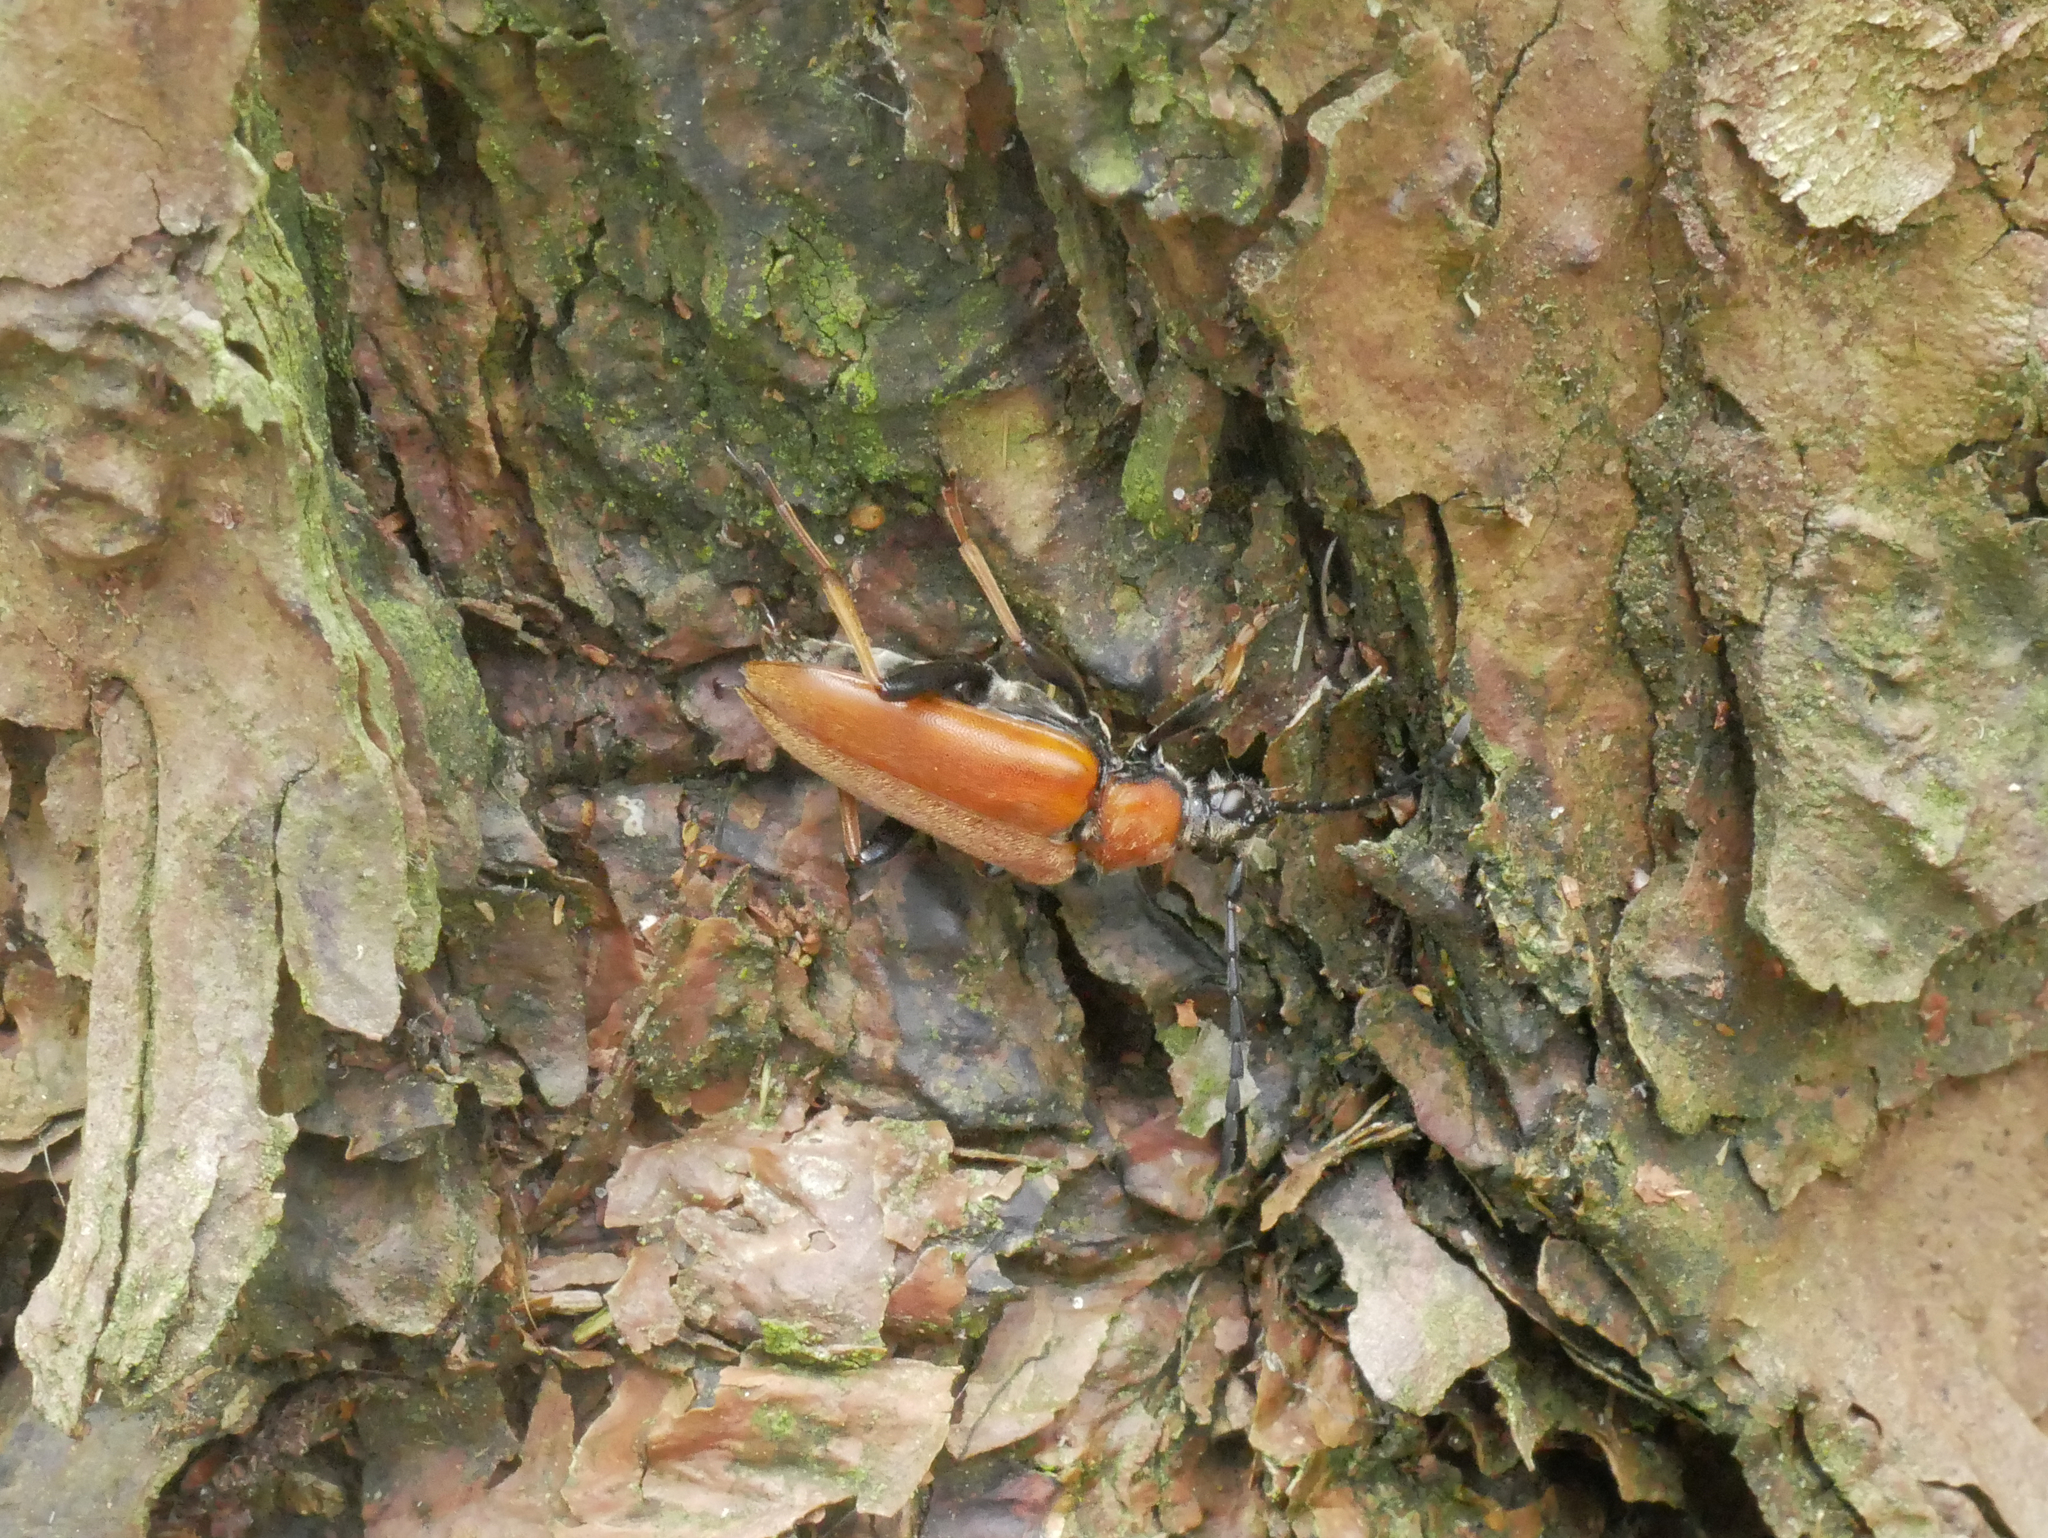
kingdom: Animalia
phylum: Arthropoda
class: Insecta
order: Coleoptera
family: Cerambycidae
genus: Stictoleptura
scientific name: Stictoleptura rubra
